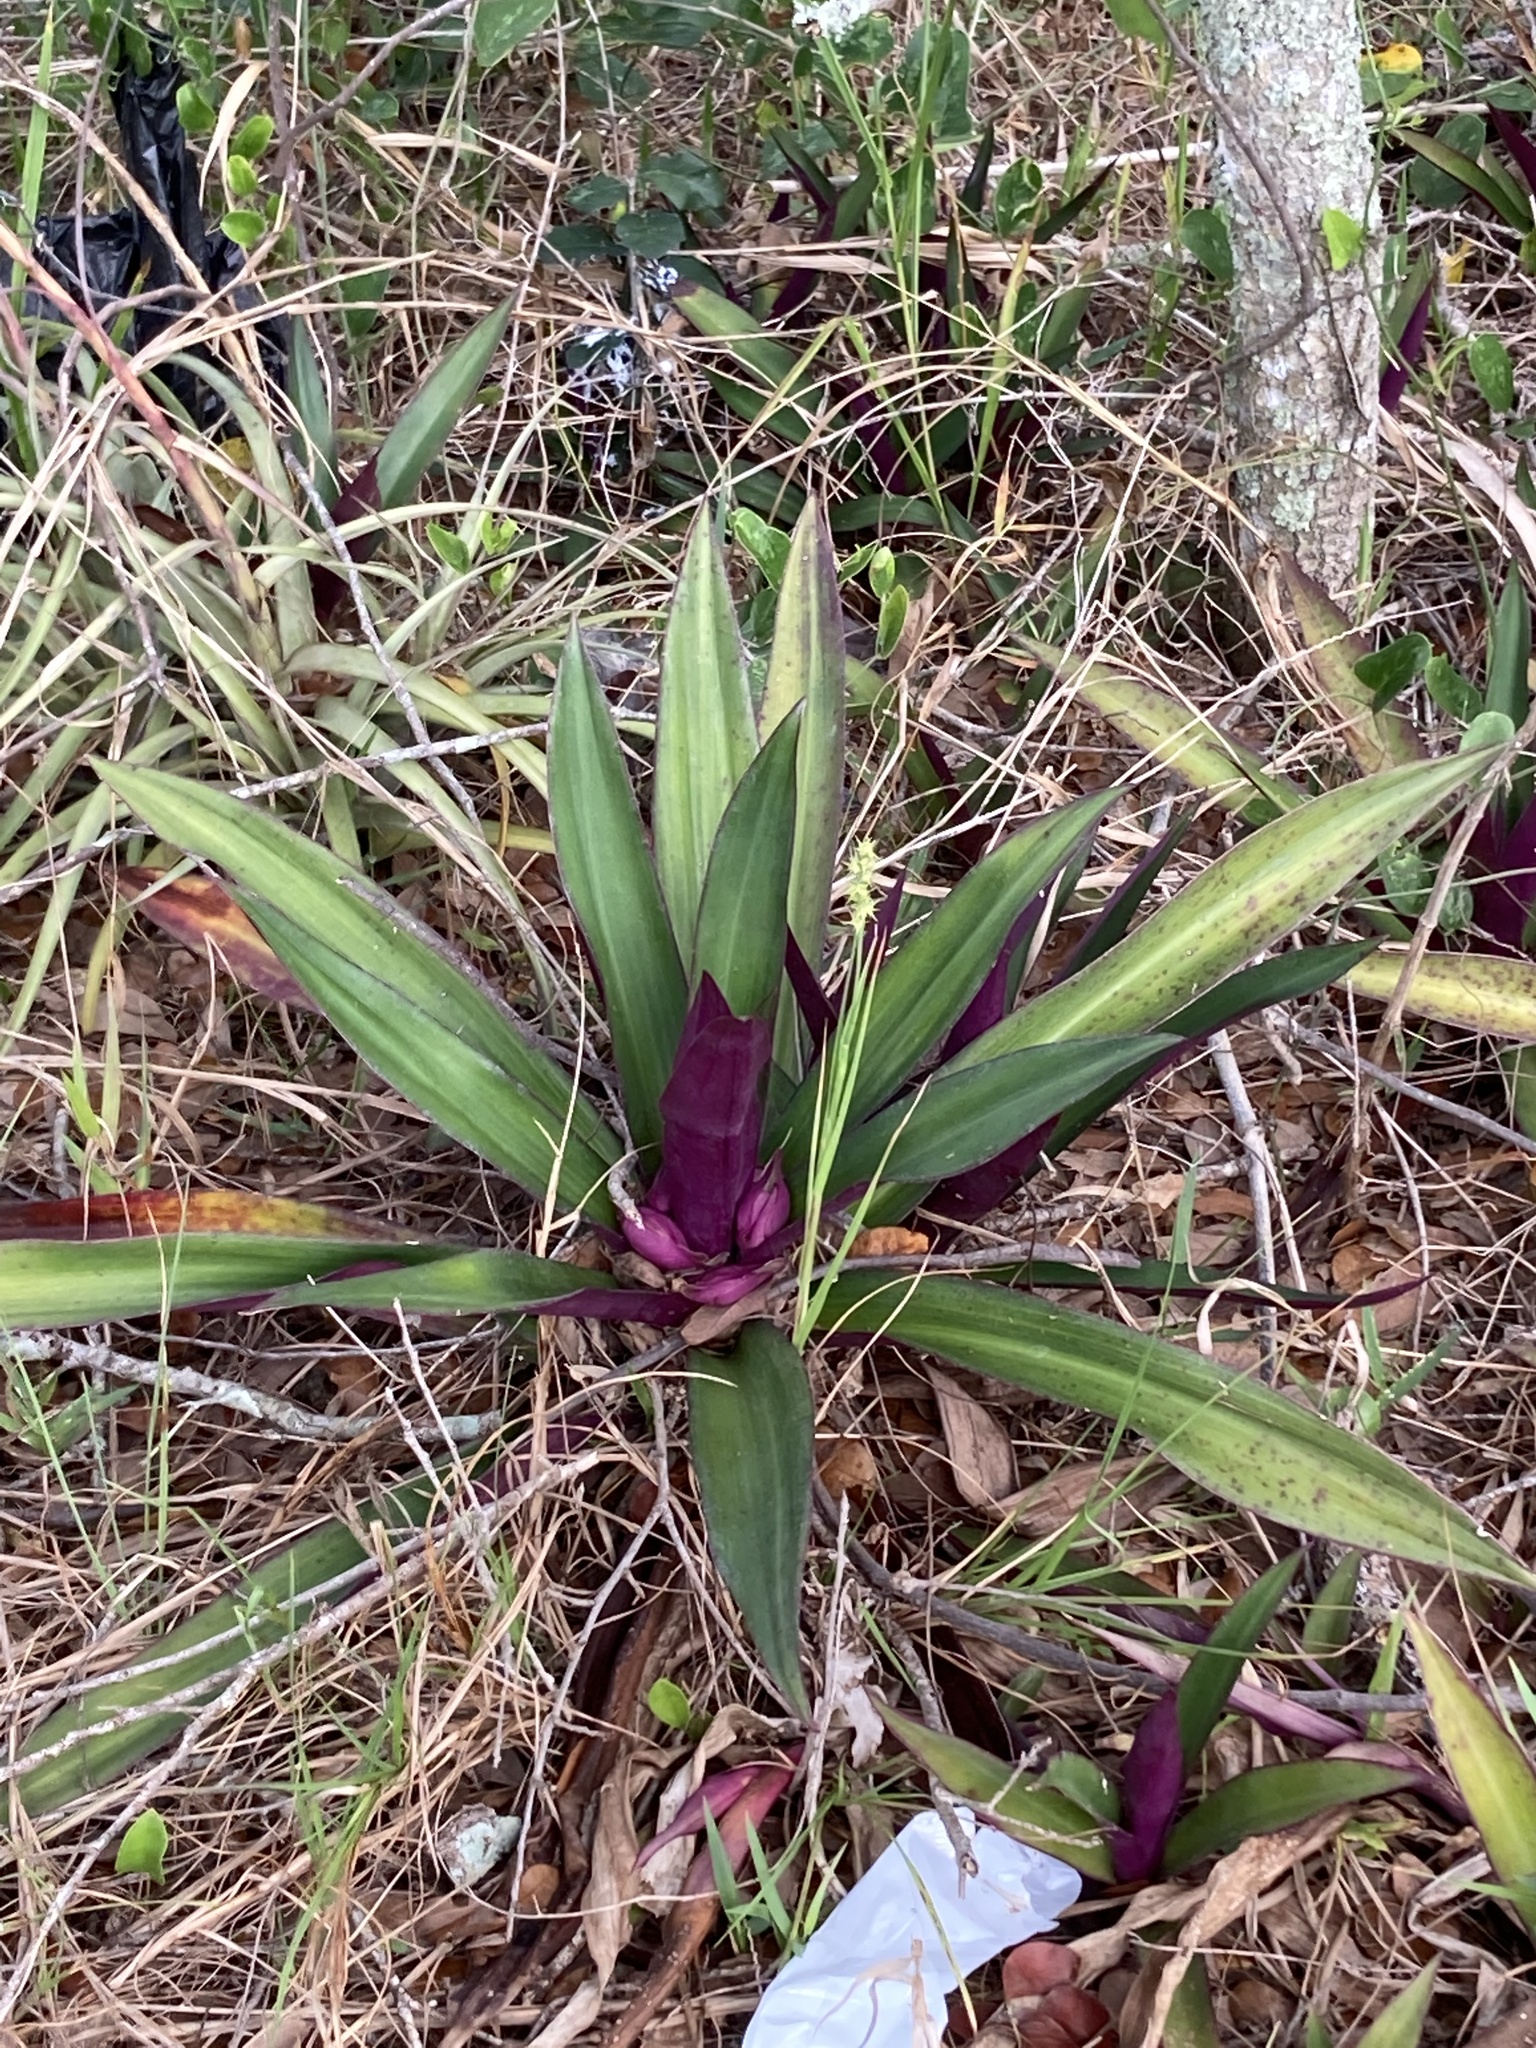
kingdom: Plantae
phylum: Tracheophyta
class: Liliopsida
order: Commelinales
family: Commelinaceae
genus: Tradescantia
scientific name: Tradescantia spathacea
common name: Boatlily
